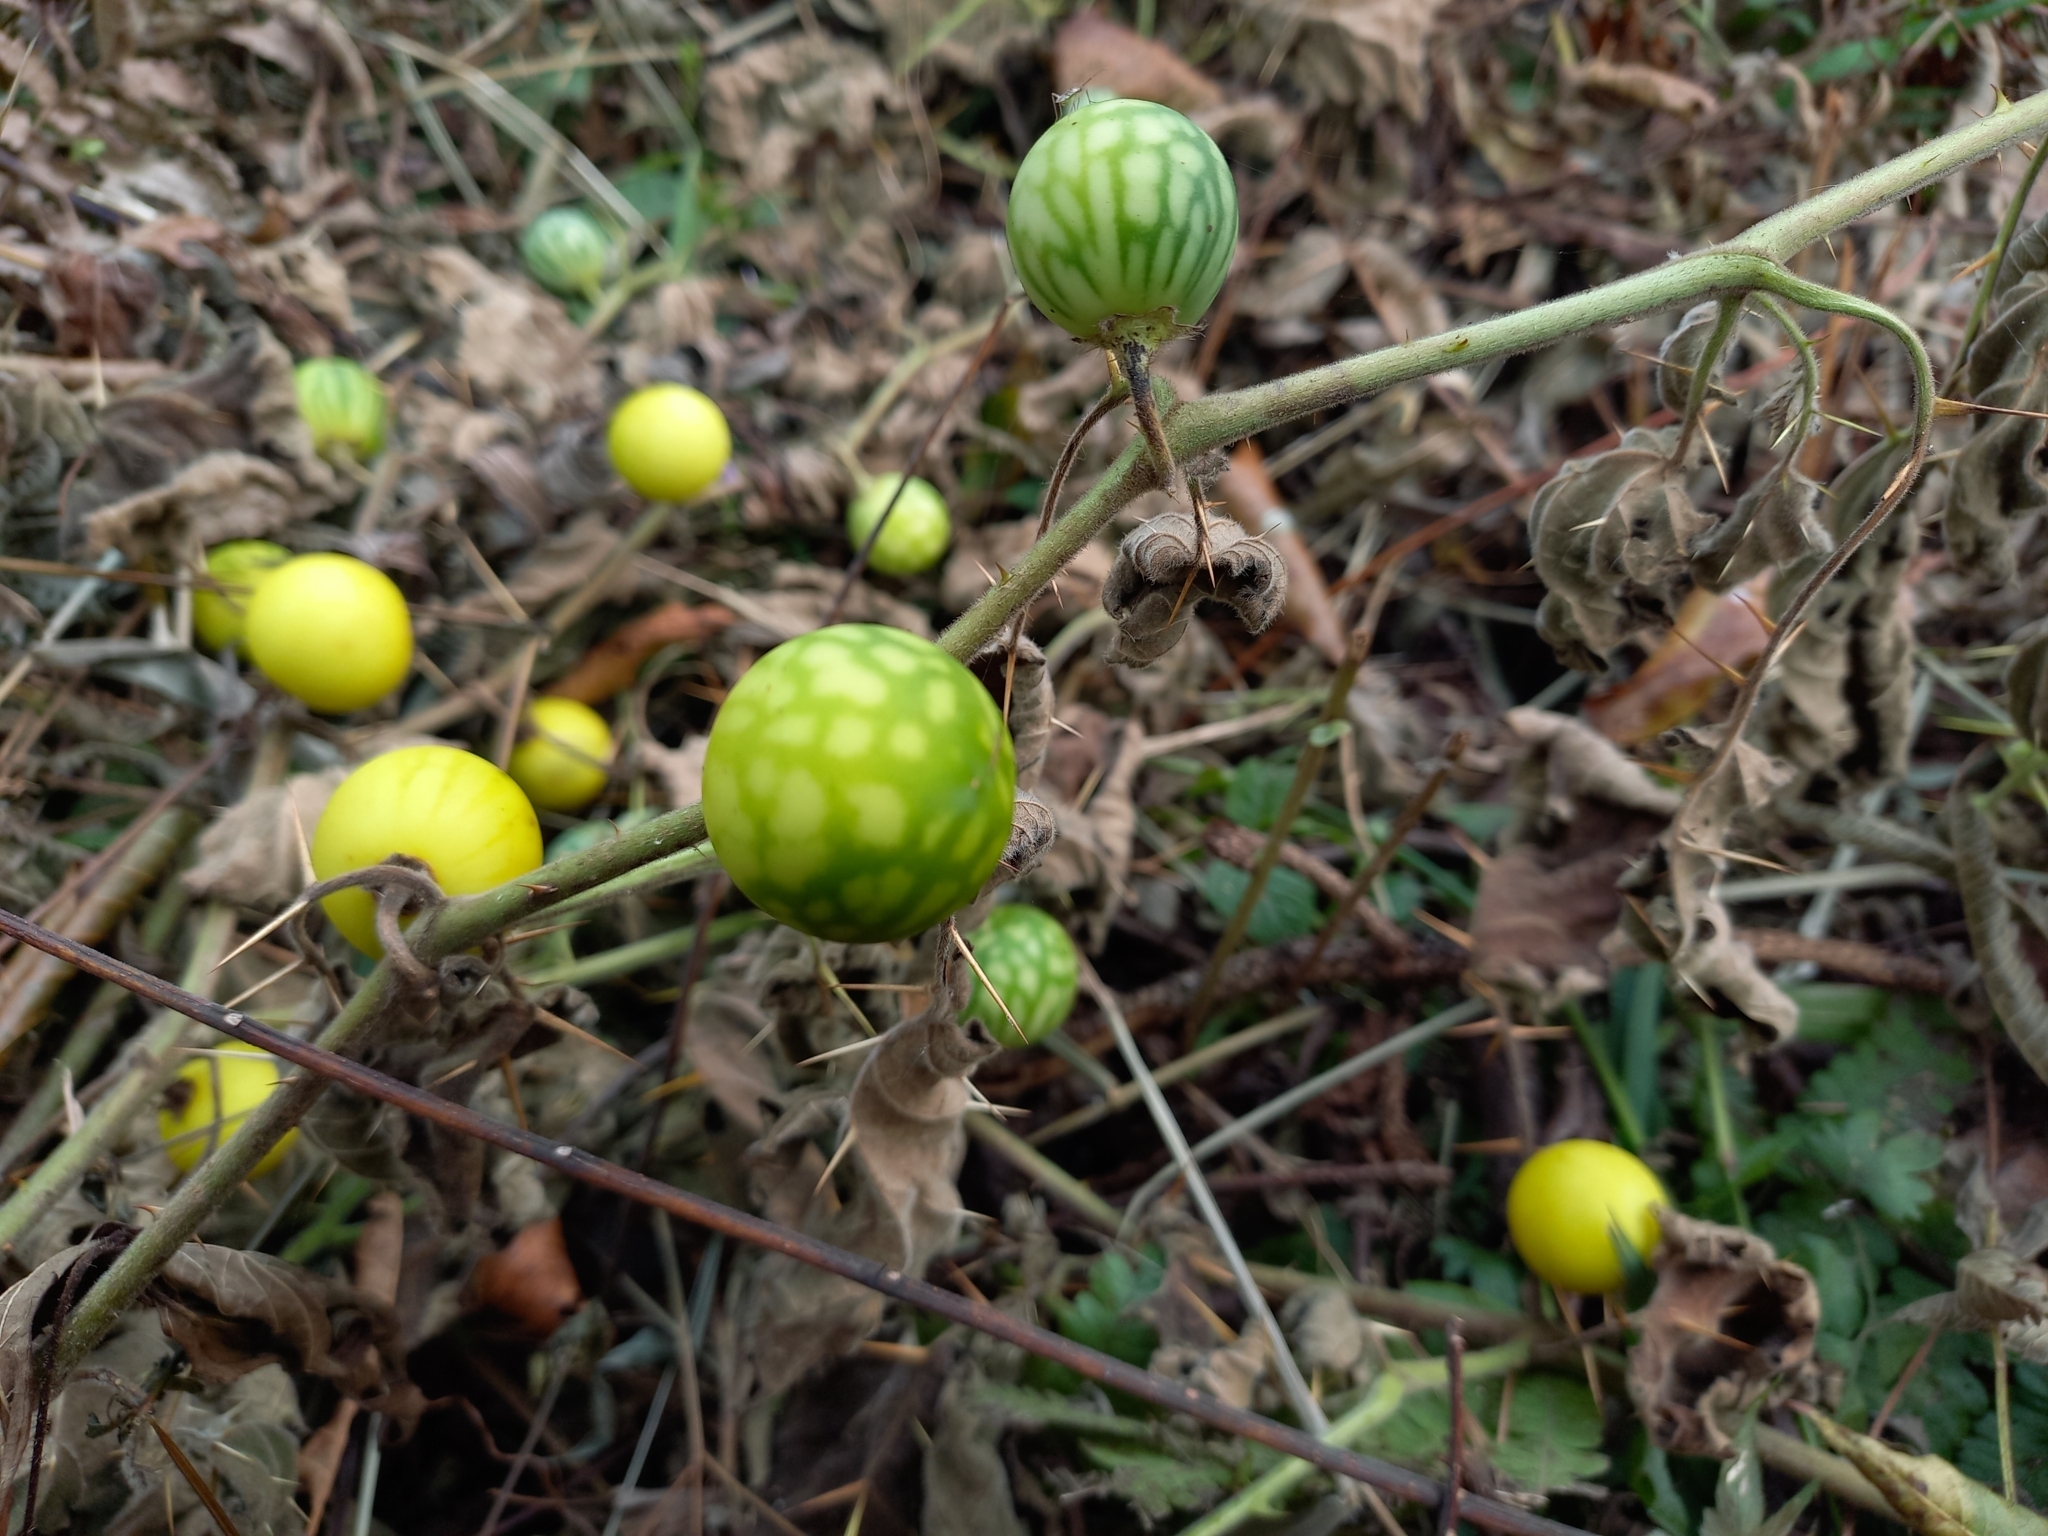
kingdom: Plantae
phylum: Tracheophyta
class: Magnoliopsida
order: Solanales
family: Solanaceae
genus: Solanum
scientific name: Solanum viarum
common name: Tropical soda apple
